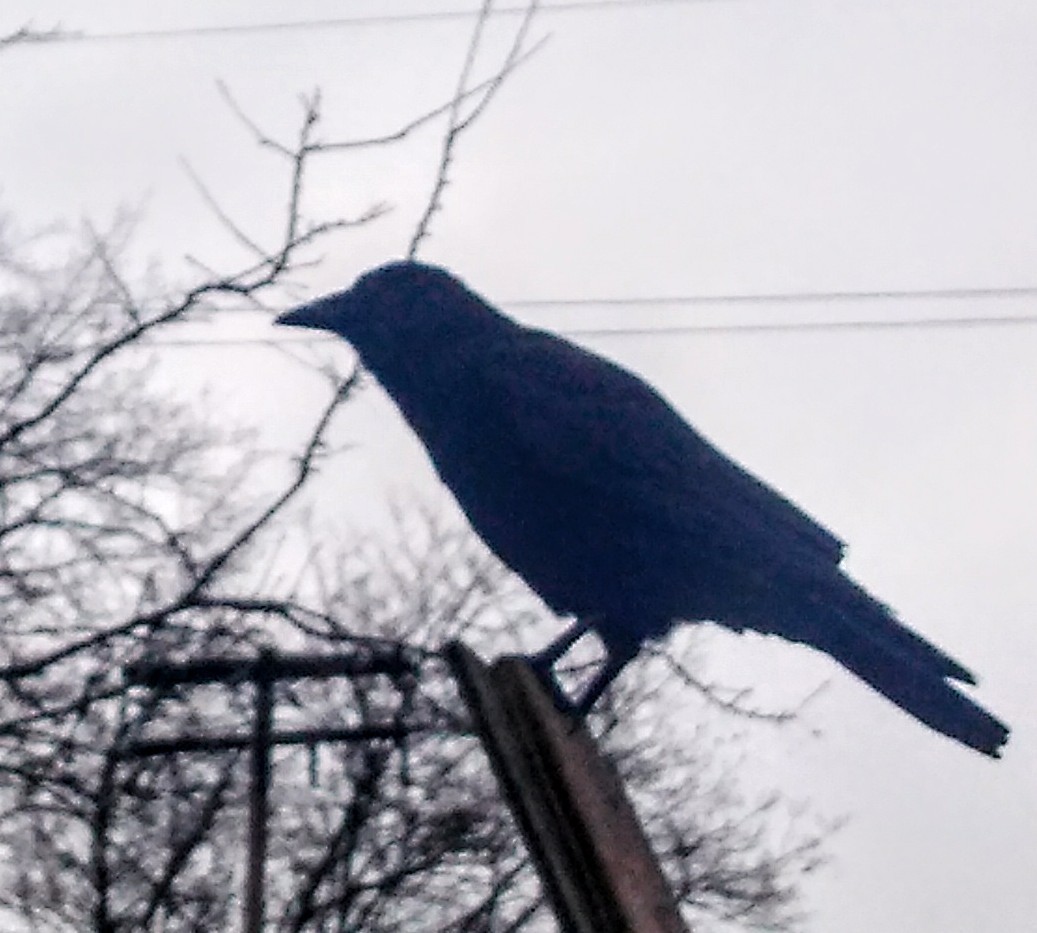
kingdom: Animalia
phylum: Chordata
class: Aves
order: Passeriformes
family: Corvidae
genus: Corvus
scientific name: Corvus brachyrhynchos
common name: American crow
